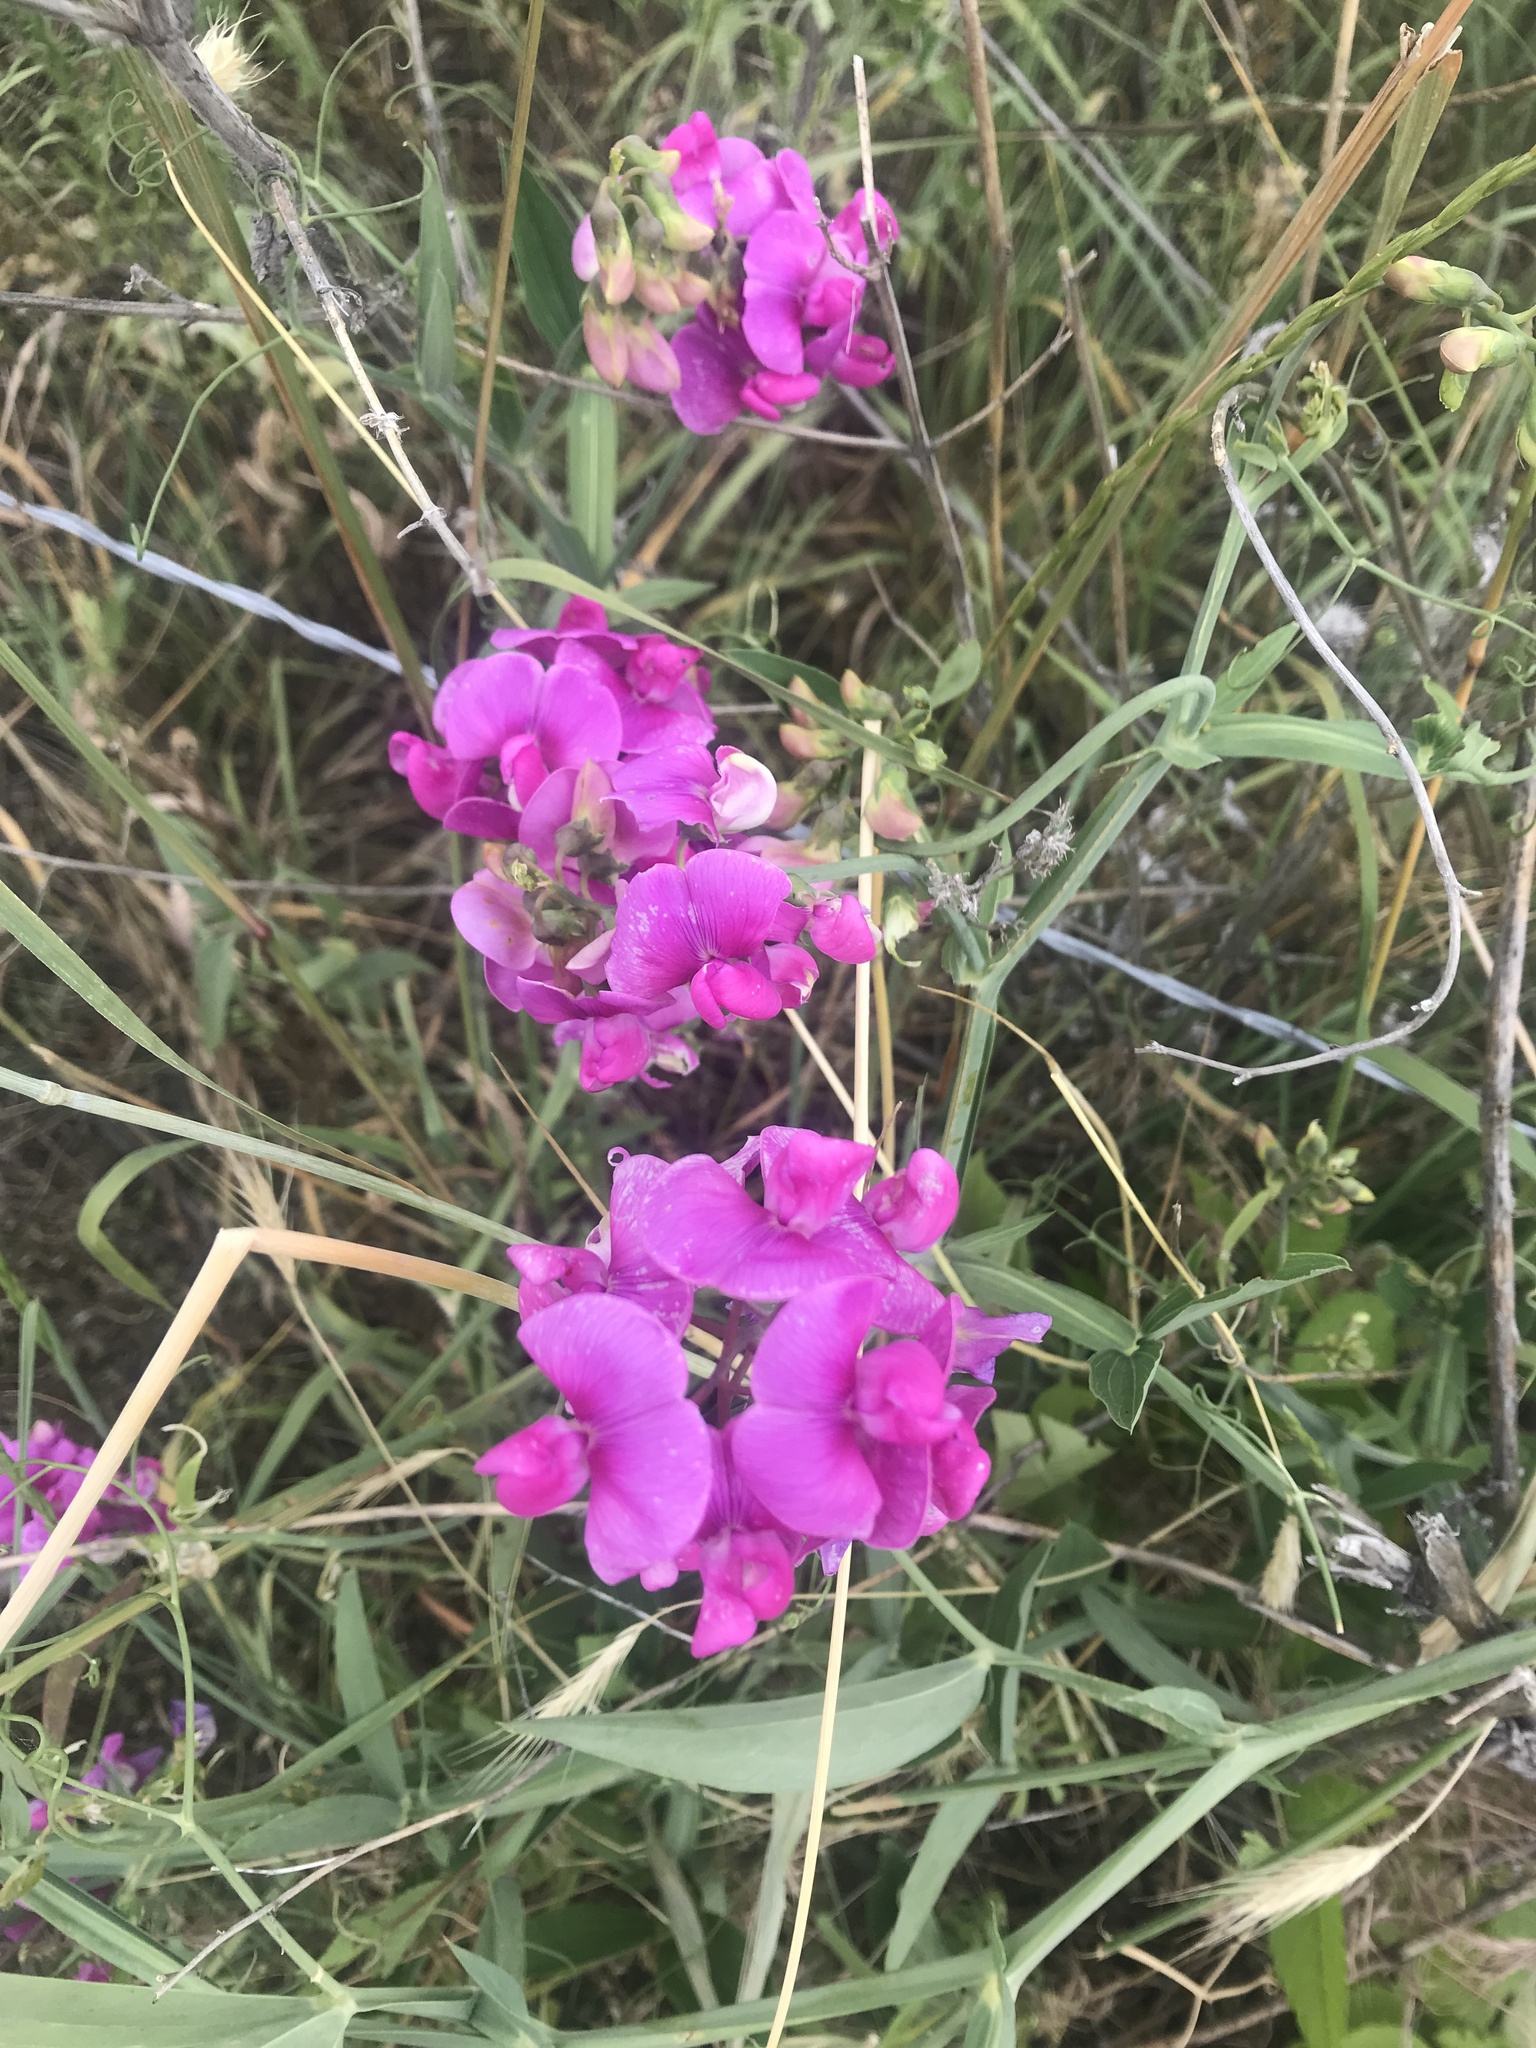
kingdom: Plantae
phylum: Tracheophyta
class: Magnoliopsida
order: Fabales
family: Fabaceae
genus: Lathyrus
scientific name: Lathyrus latifolius
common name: Perennial pea
